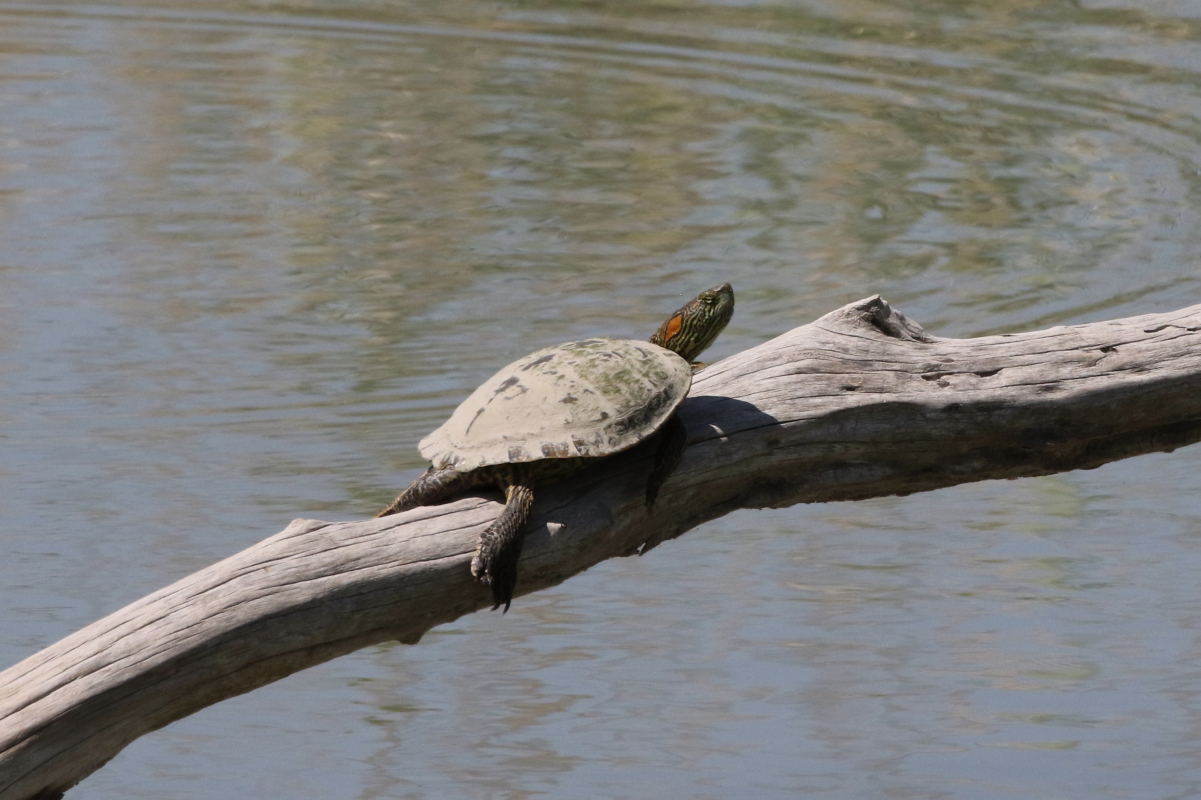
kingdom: Animalia
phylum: Chordata
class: Testudines
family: Emydidae
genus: Trachemys
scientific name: Trachemys gaigeae
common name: Big bend slider
